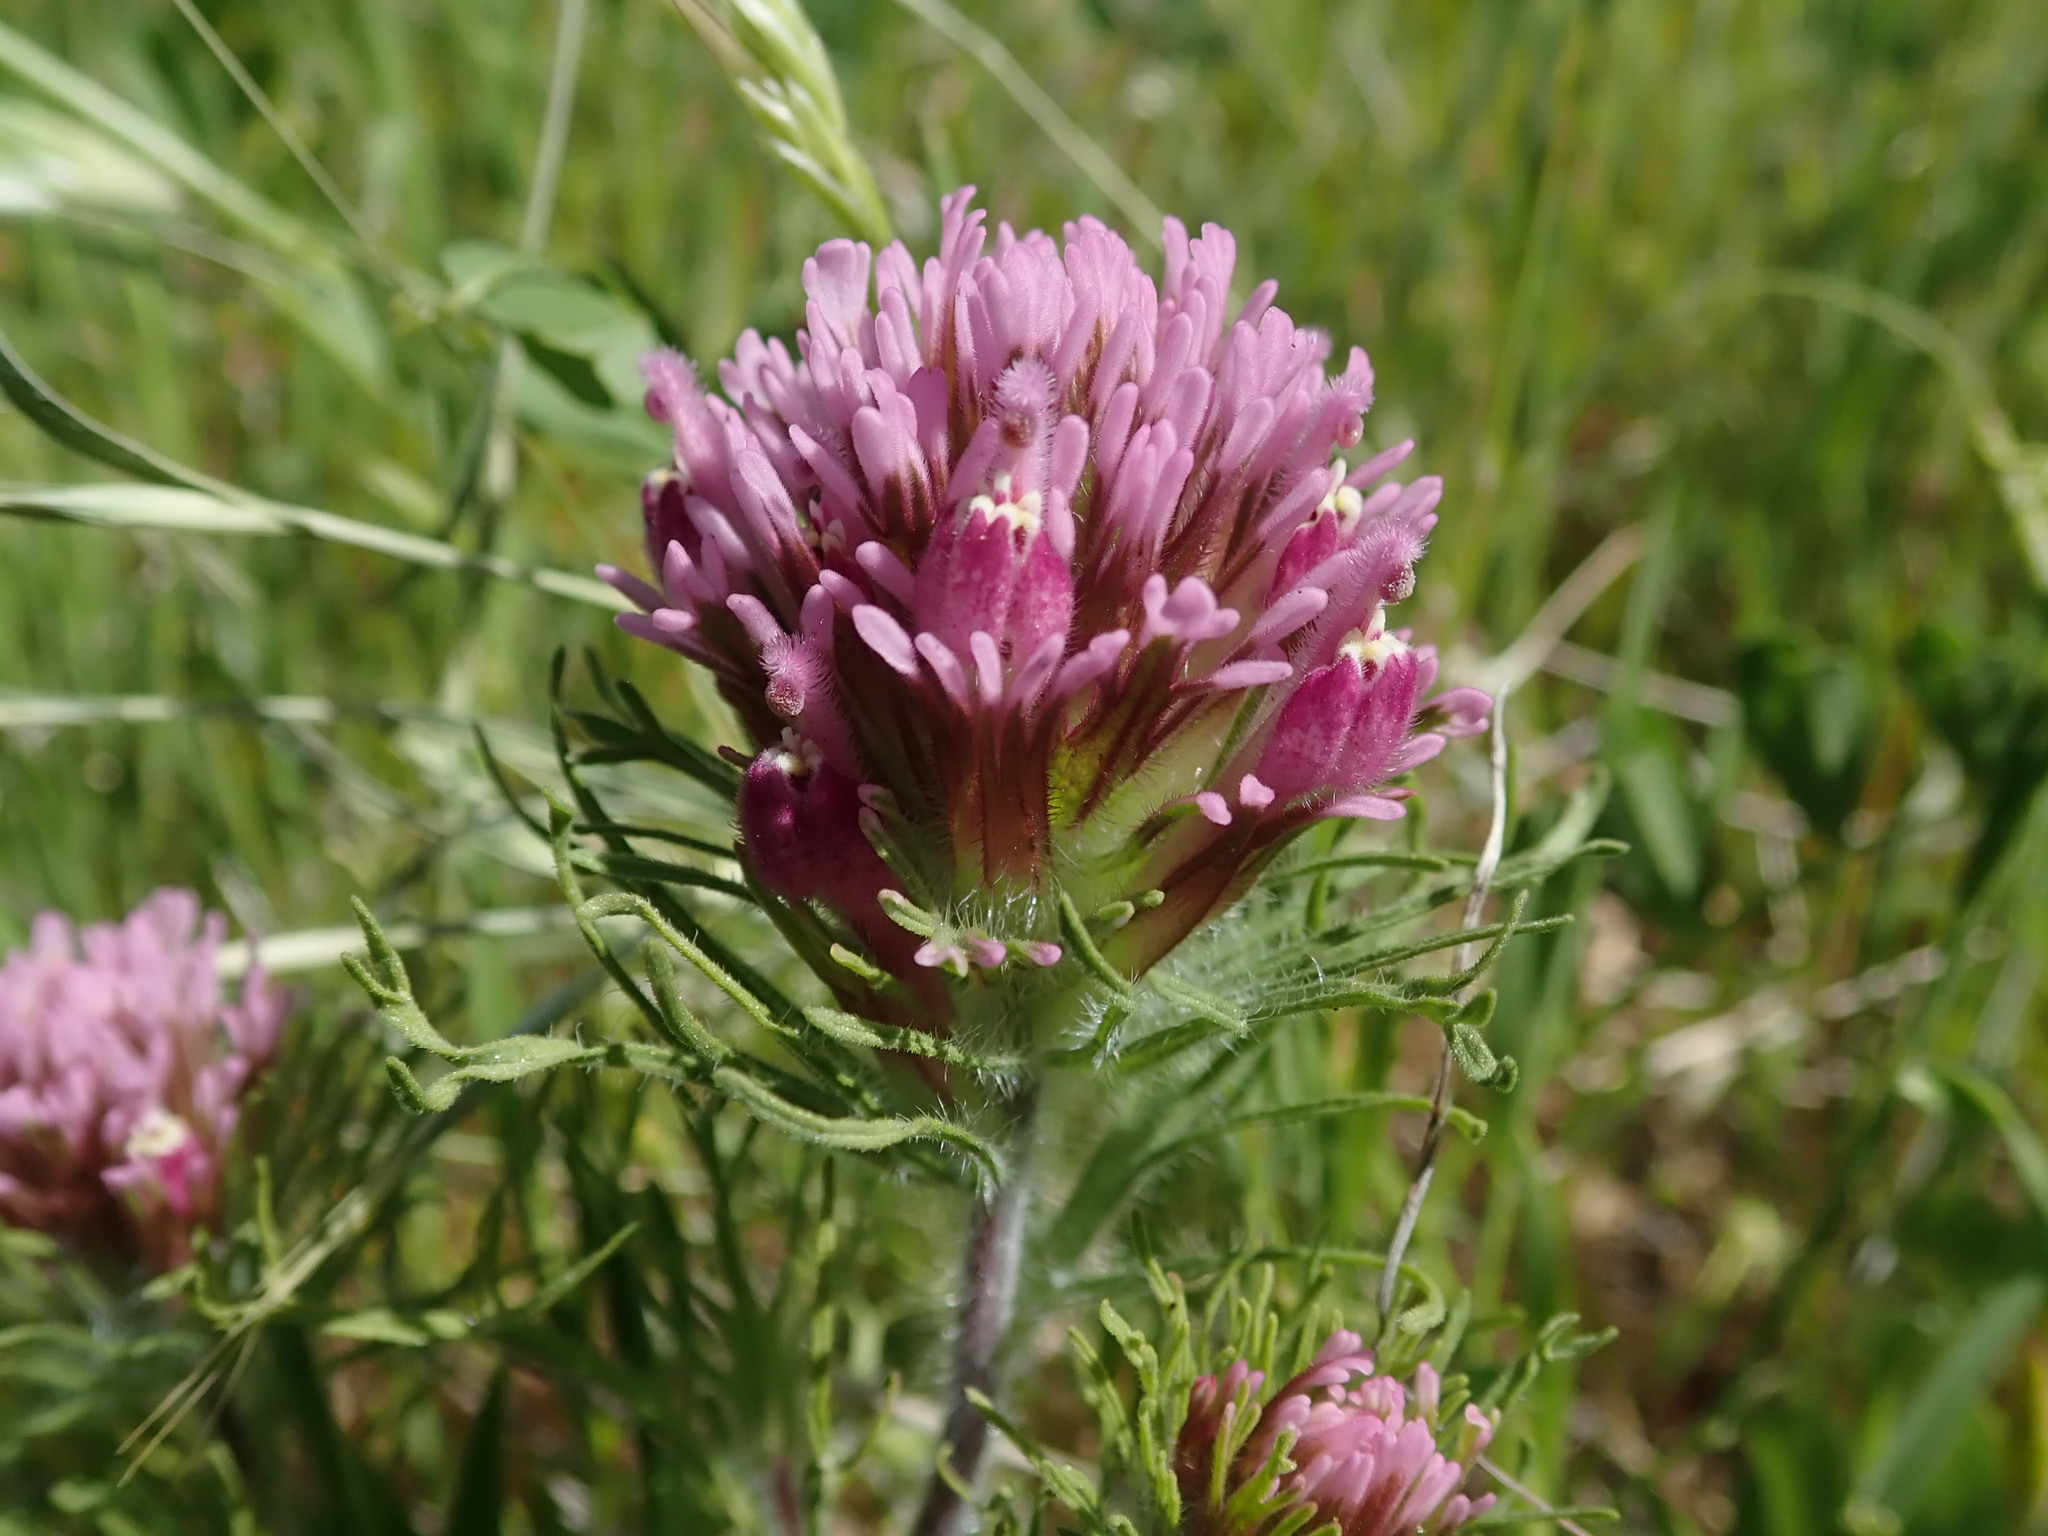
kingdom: Plantae
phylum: Tracheophyta
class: Magnoliopsida
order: Lamiales
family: Orobanchaceae
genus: Castilleja
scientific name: Castilleja exserta
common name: Purple owl-clover
